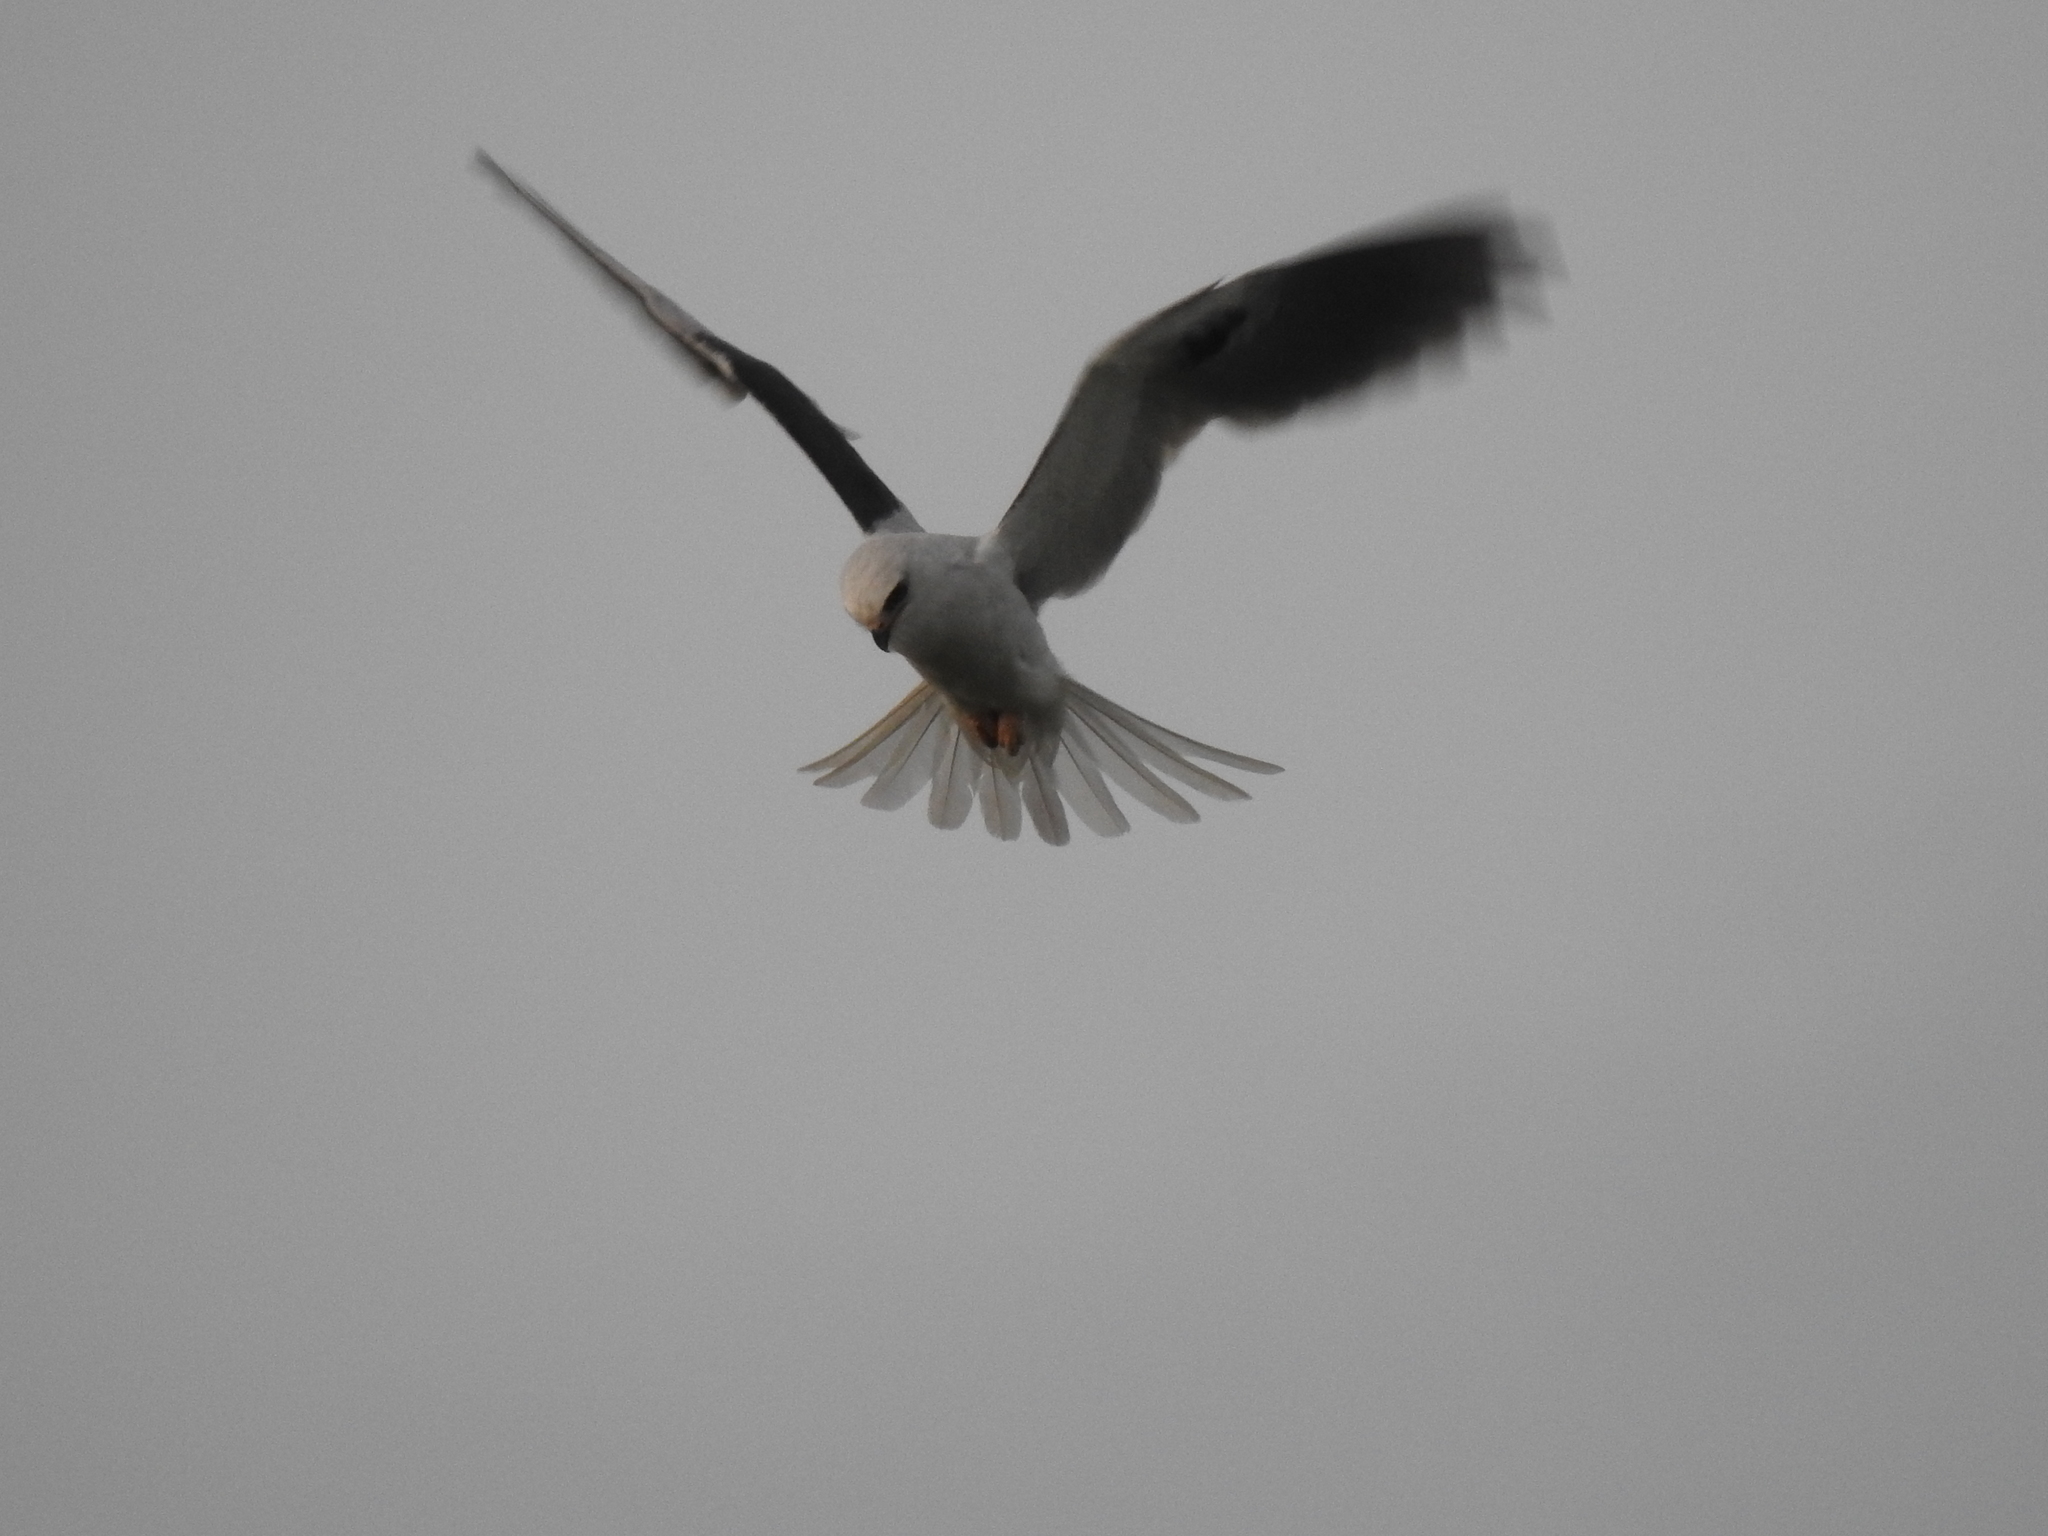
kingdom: Animalia
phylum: Chordata
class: Aves
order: Accipitriformes
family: Accipitridae
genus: Elanus
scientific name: Elanus leucurus
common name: White-tailed kite
